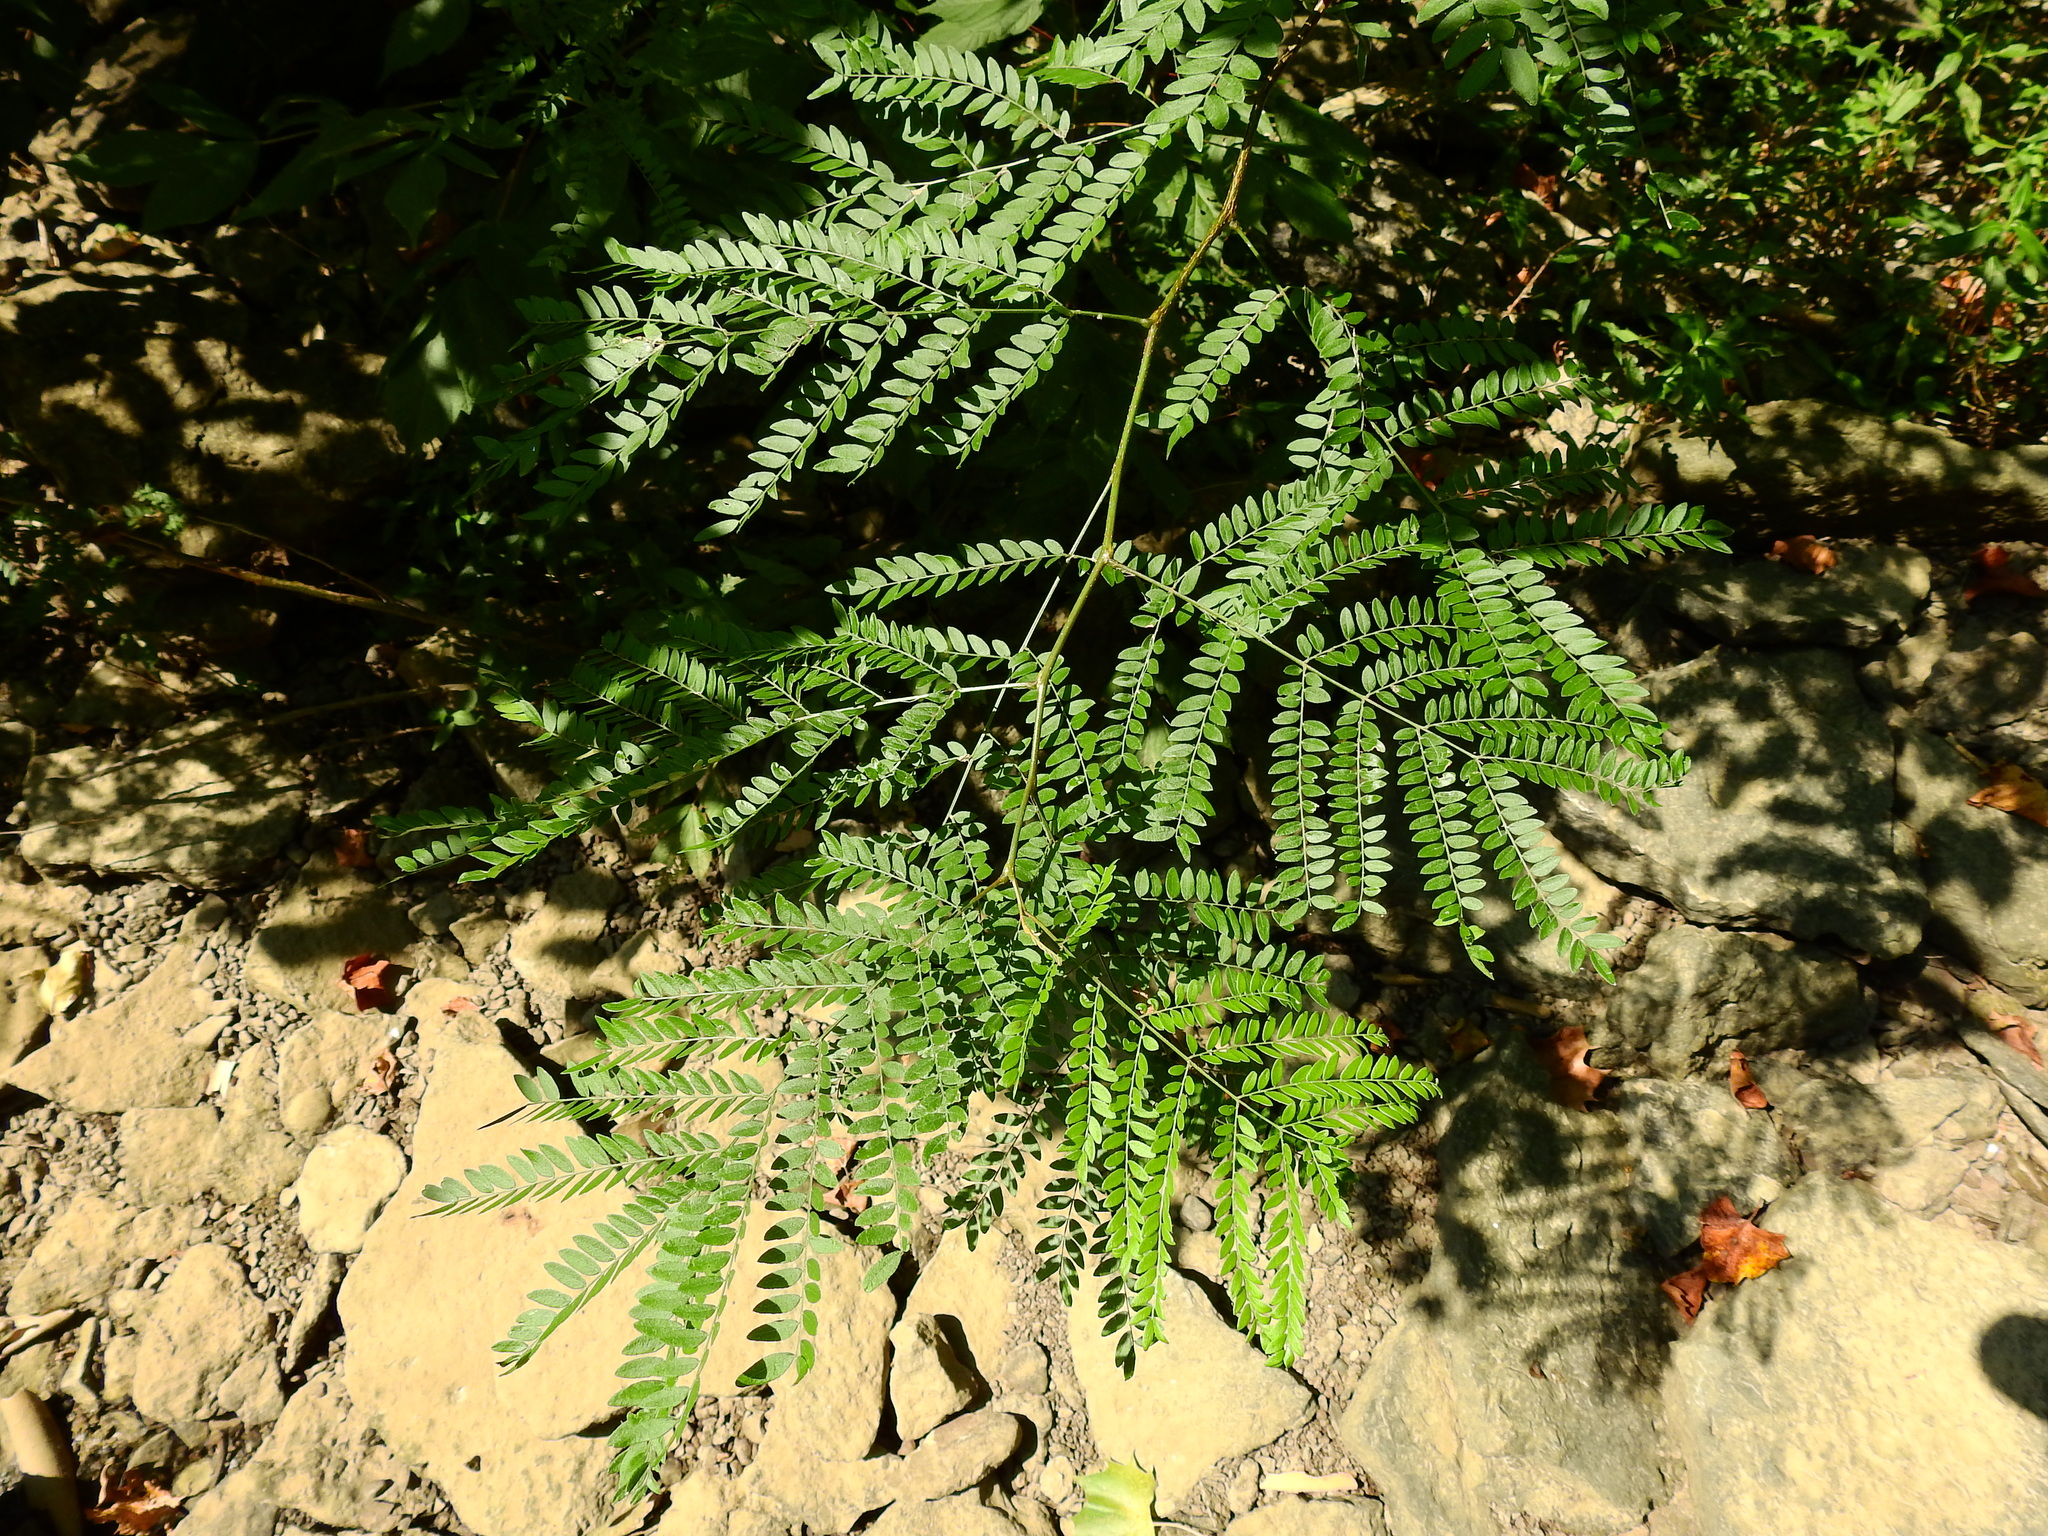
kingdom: Plantae
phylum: Tracheophyta
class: Magnoliopsida
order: Fabales
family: Fabaceae
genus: Gleditsia
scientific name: Gleditsia triacanthos
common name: Common honeylocust
